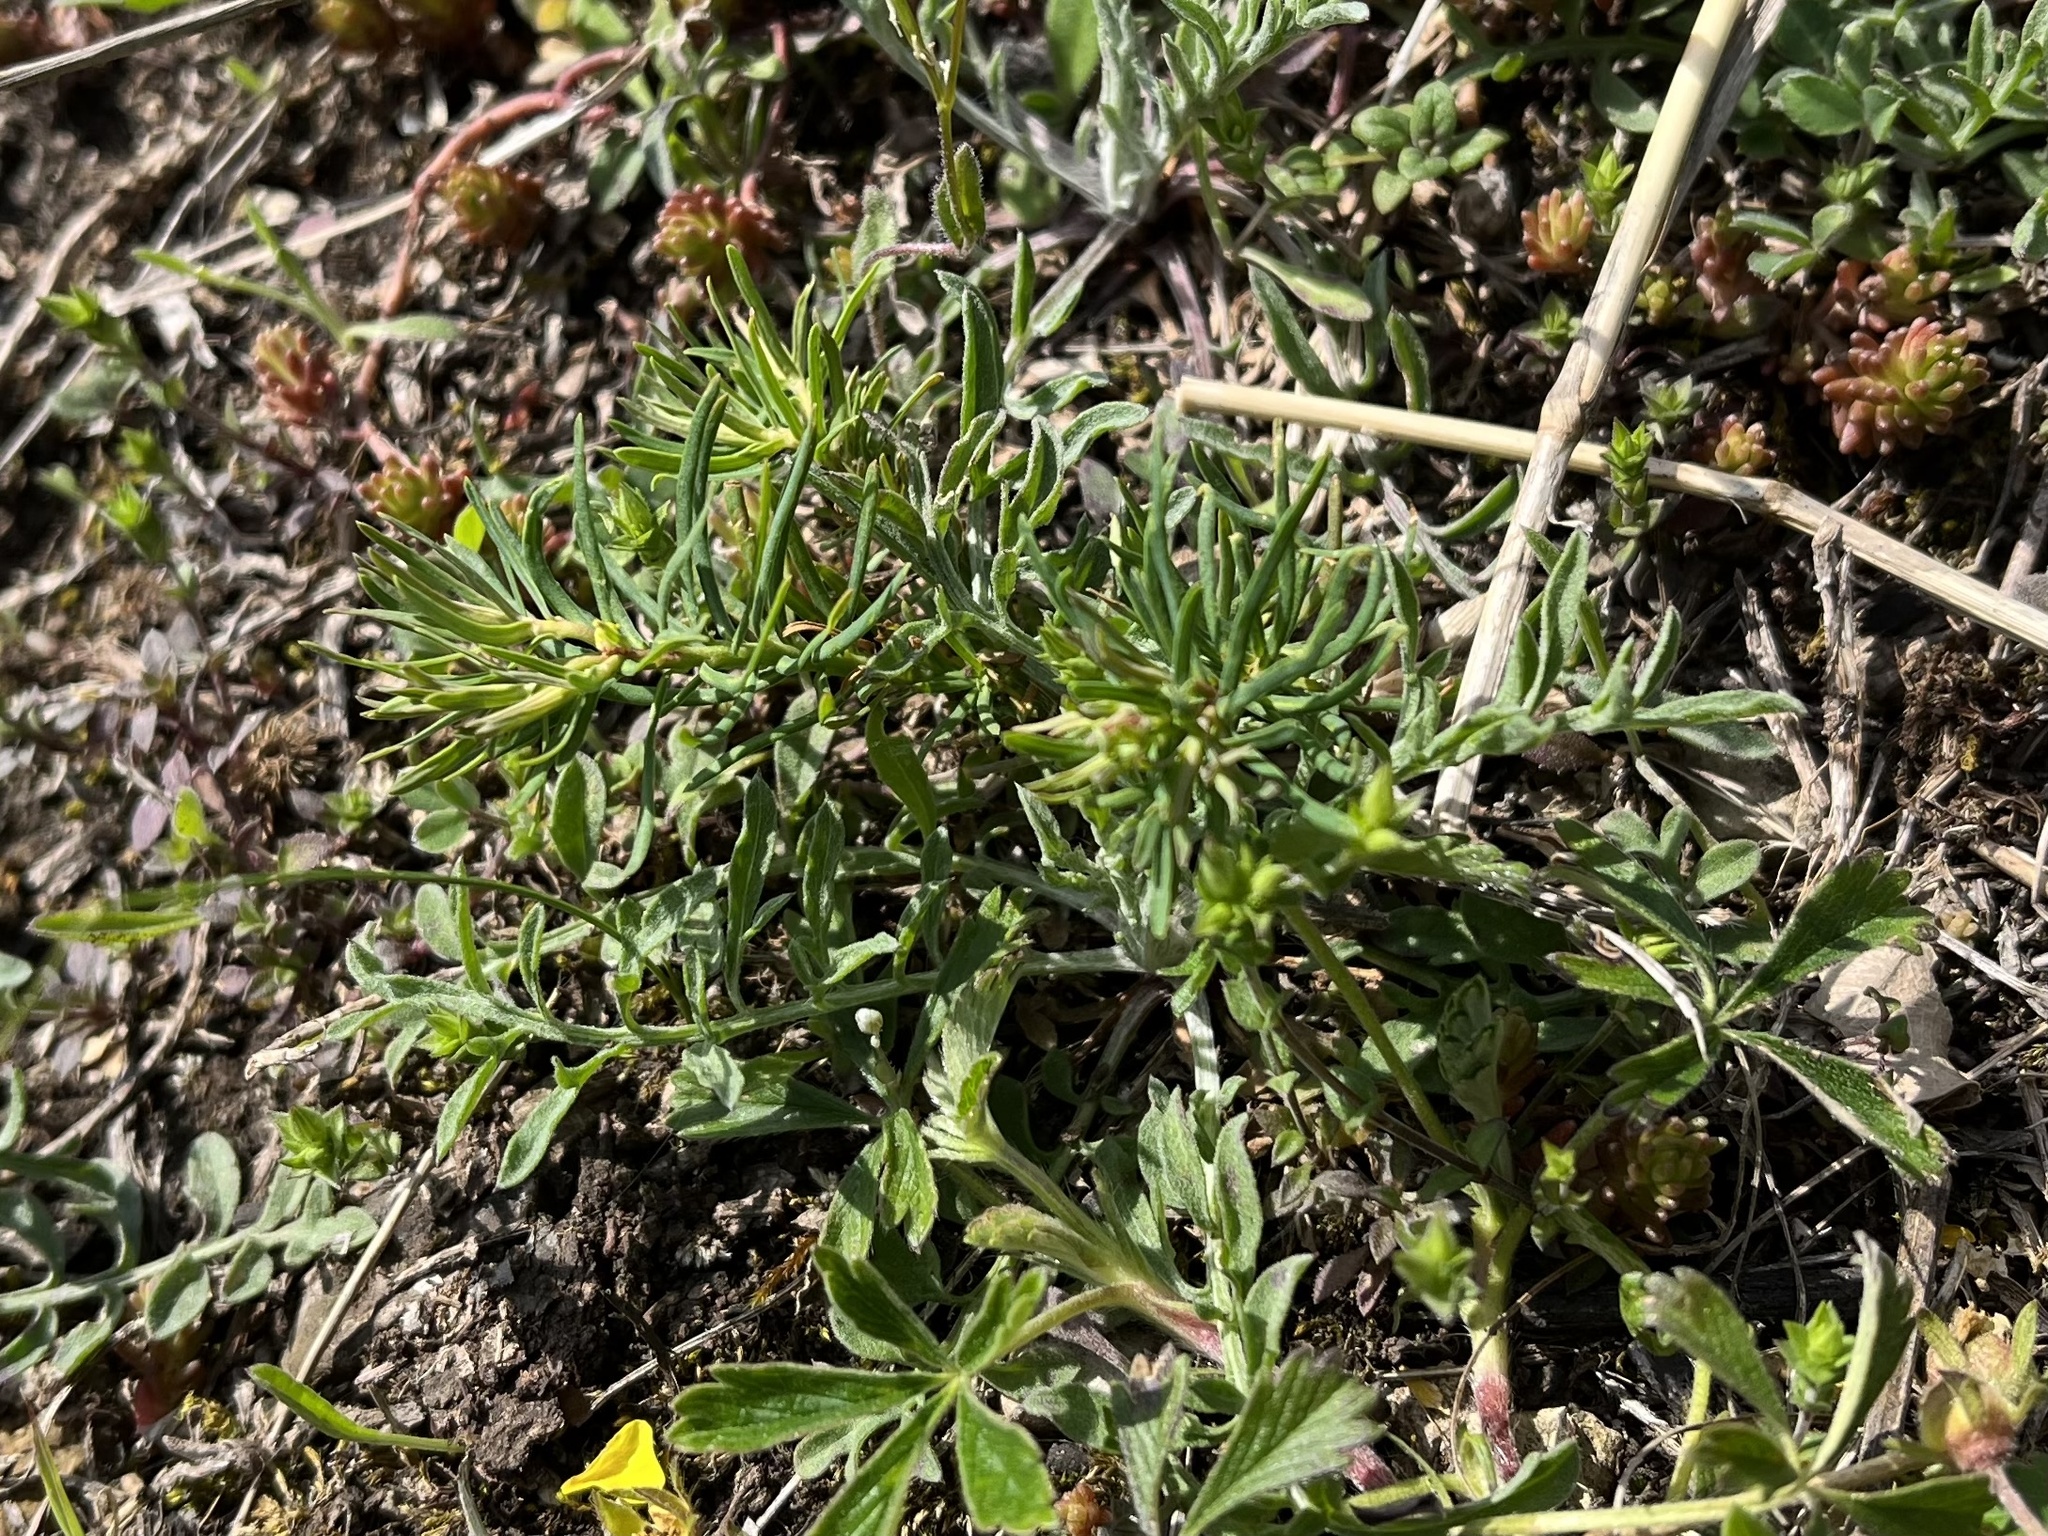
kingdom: Plantae
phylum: Tracheophyta
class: Magnoliopsida
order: Malpighiales
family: Euphorbiaceae
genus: Euphorbia
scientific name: Euphorbia cyparissias
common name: Cypress spurge
